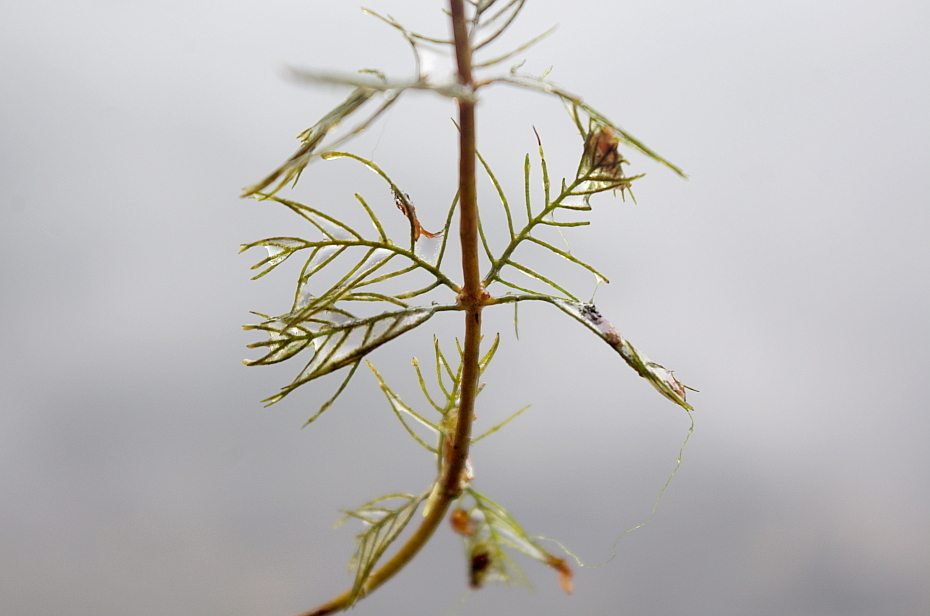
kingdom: Plantae
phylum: Tracheophyta
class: Magnoliopsida
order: Saxifragales
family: Haloragaceae
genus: Myriophyllum
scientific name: Myriophyllum sibiricum
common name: Siberian water-milfoil
